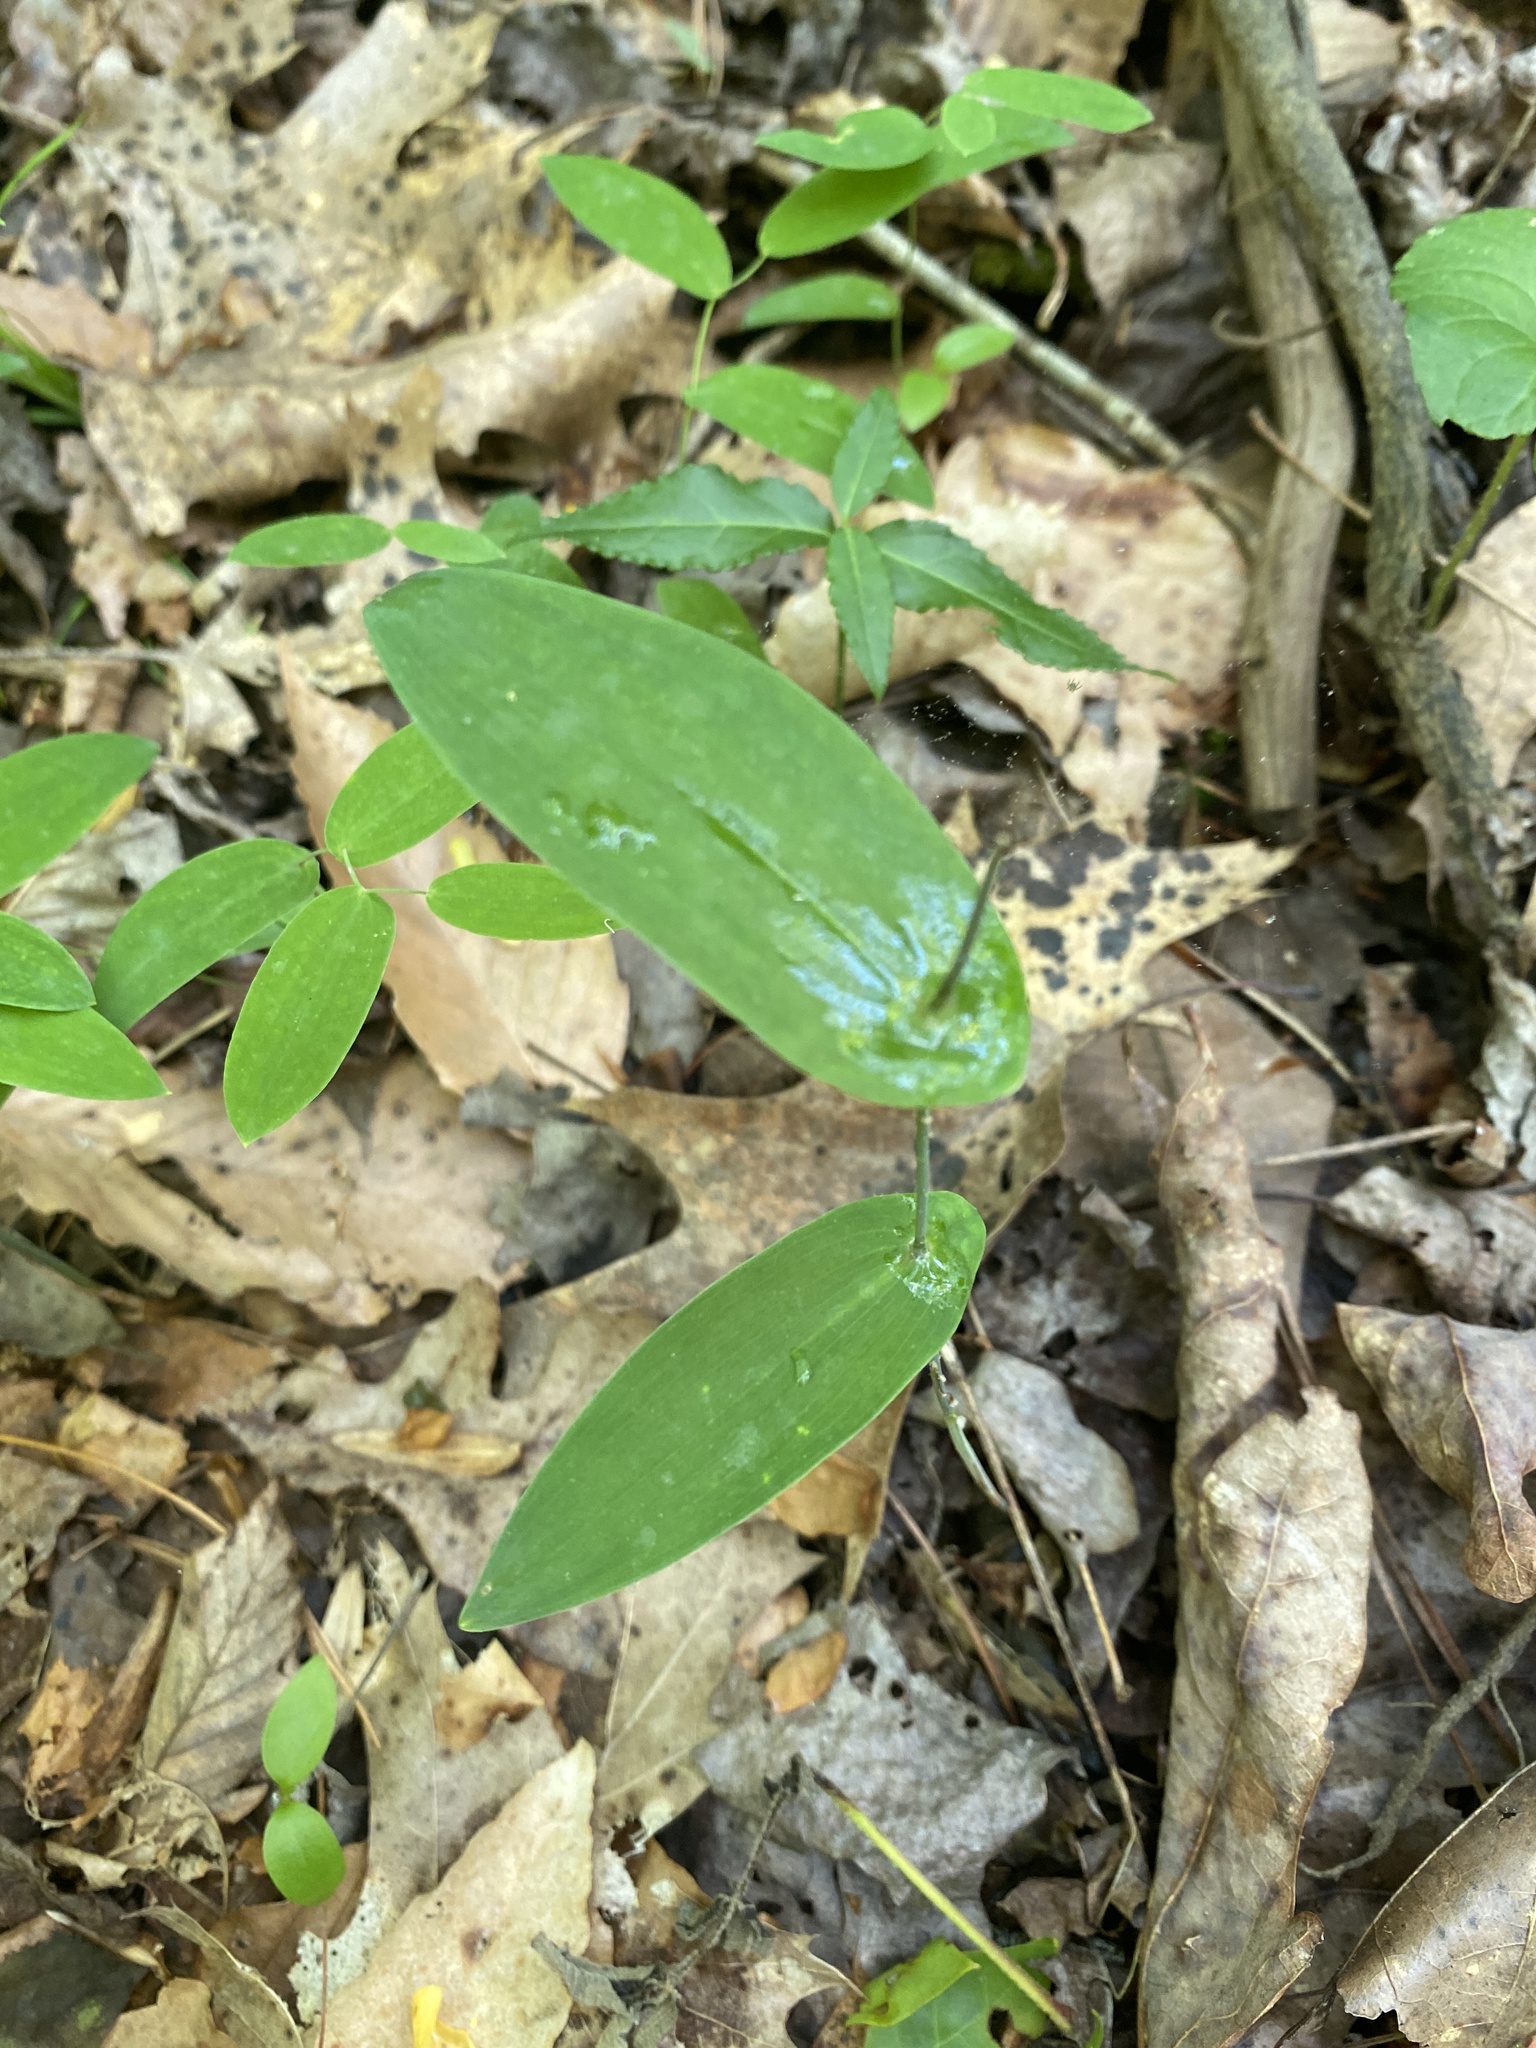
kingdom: Plantae
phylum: Tracheophyta
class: Liliopsida
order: Liliales
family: Colchicaceae
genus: Uvularia
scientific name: Uvularia perfoliata
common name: Perfoliate bellwort
